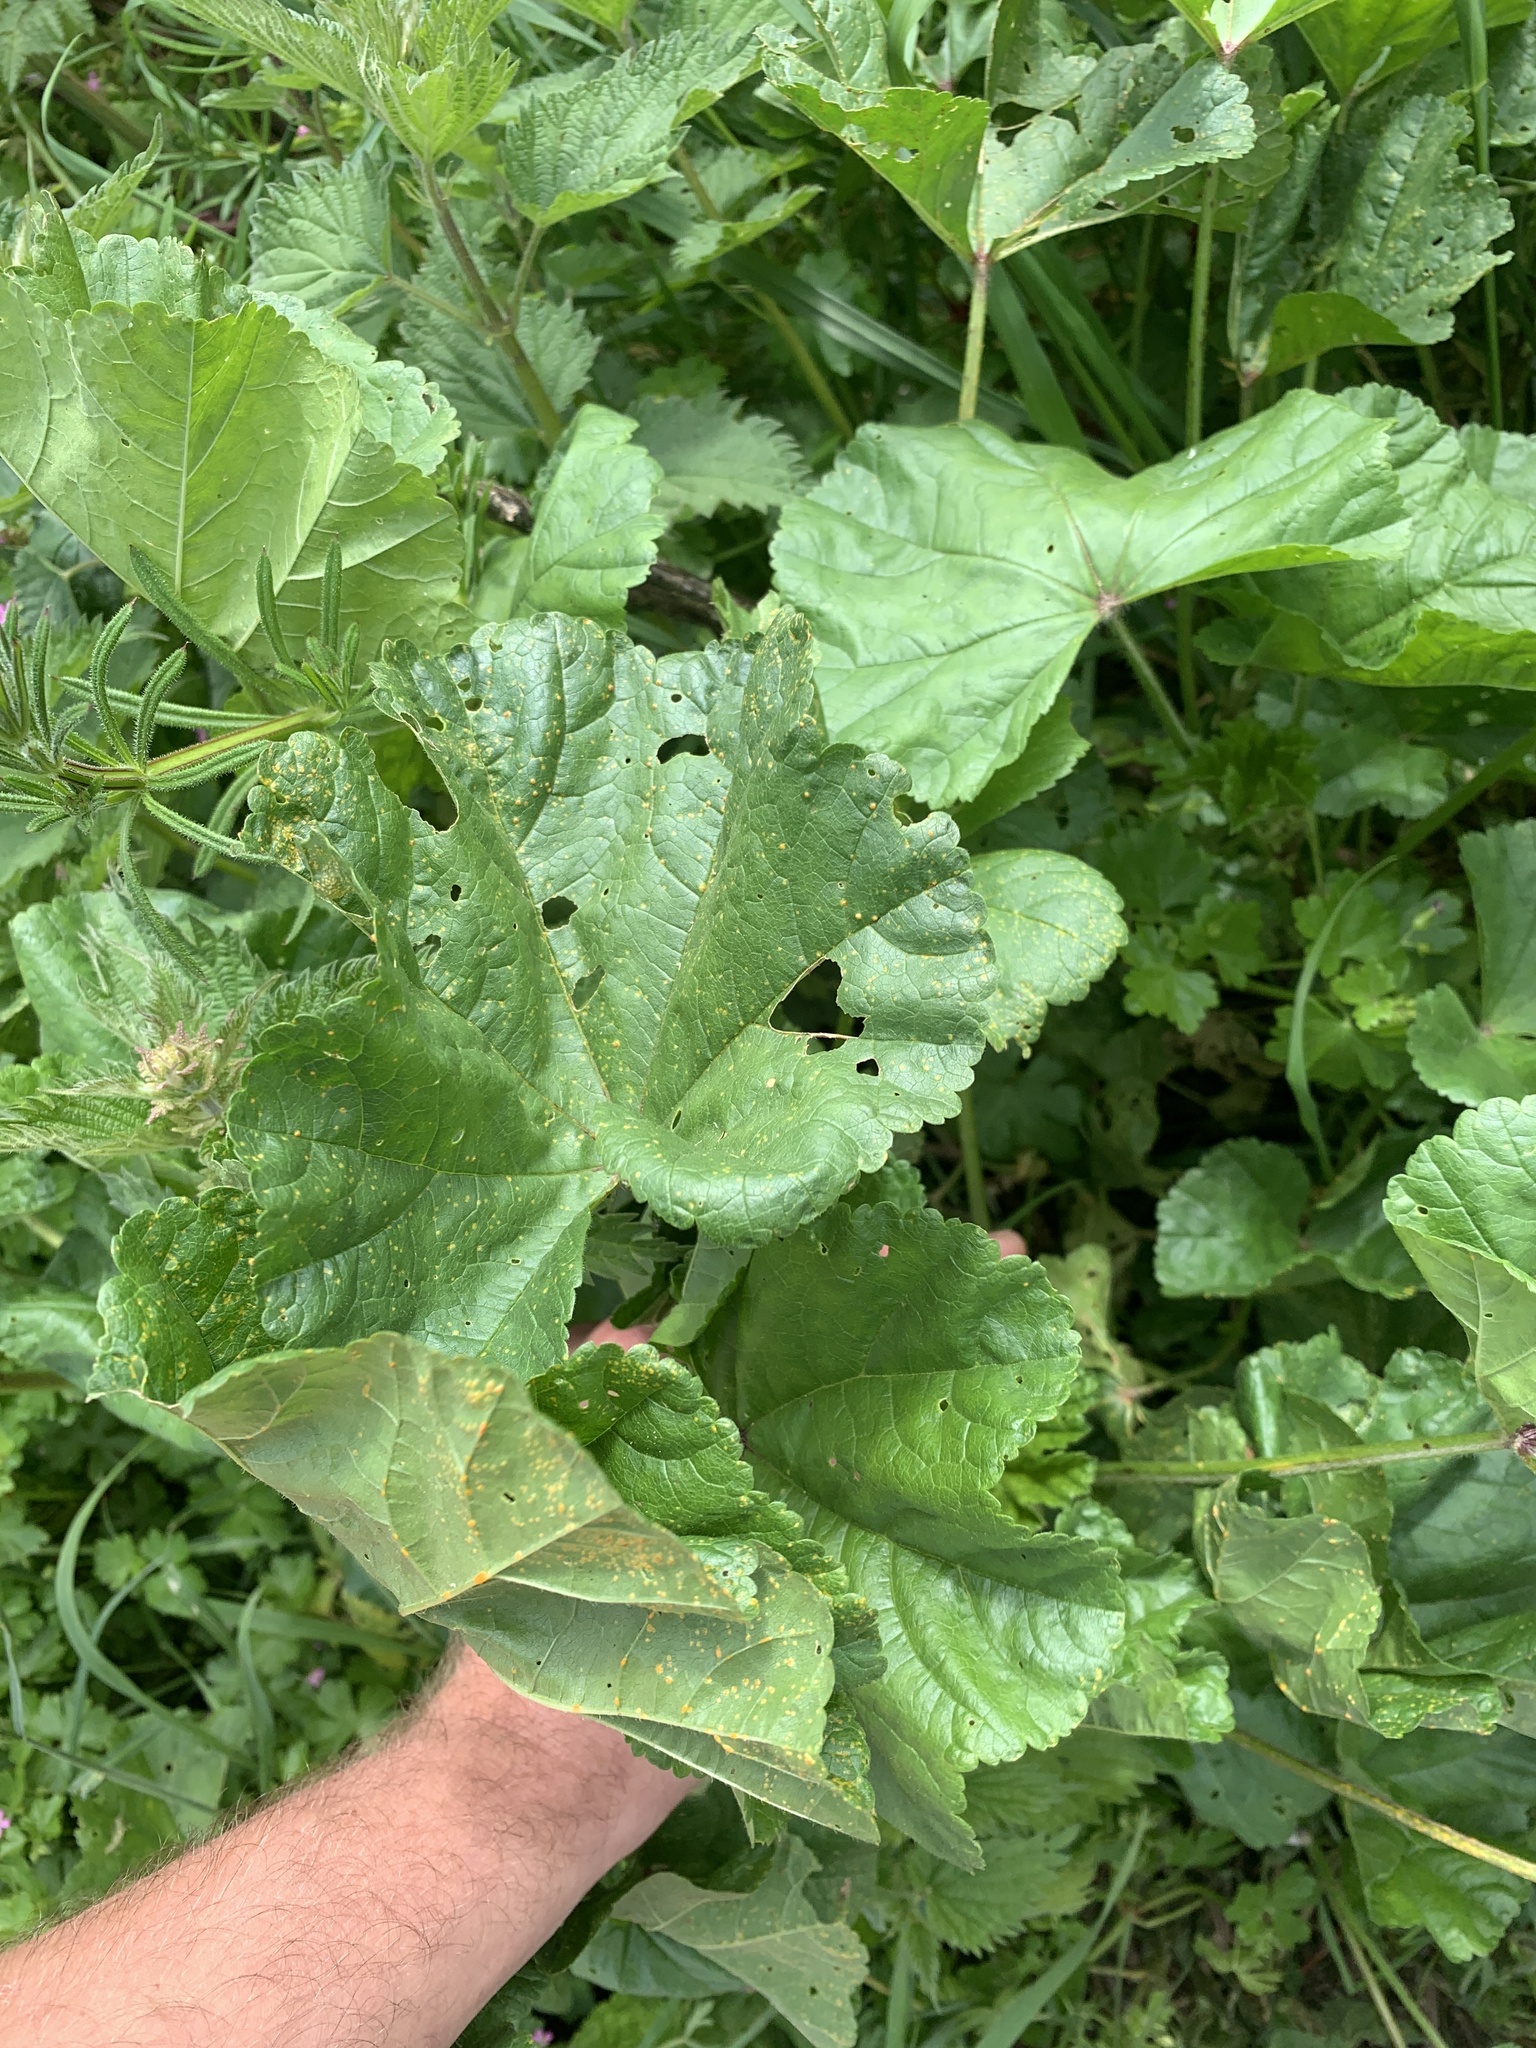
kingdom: Plantae
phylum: Tracheophyta
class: Magnoliopsida
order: Malvales
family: Malvaceae
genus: Malva
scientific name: Malva sylvestris
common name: Common mallow
